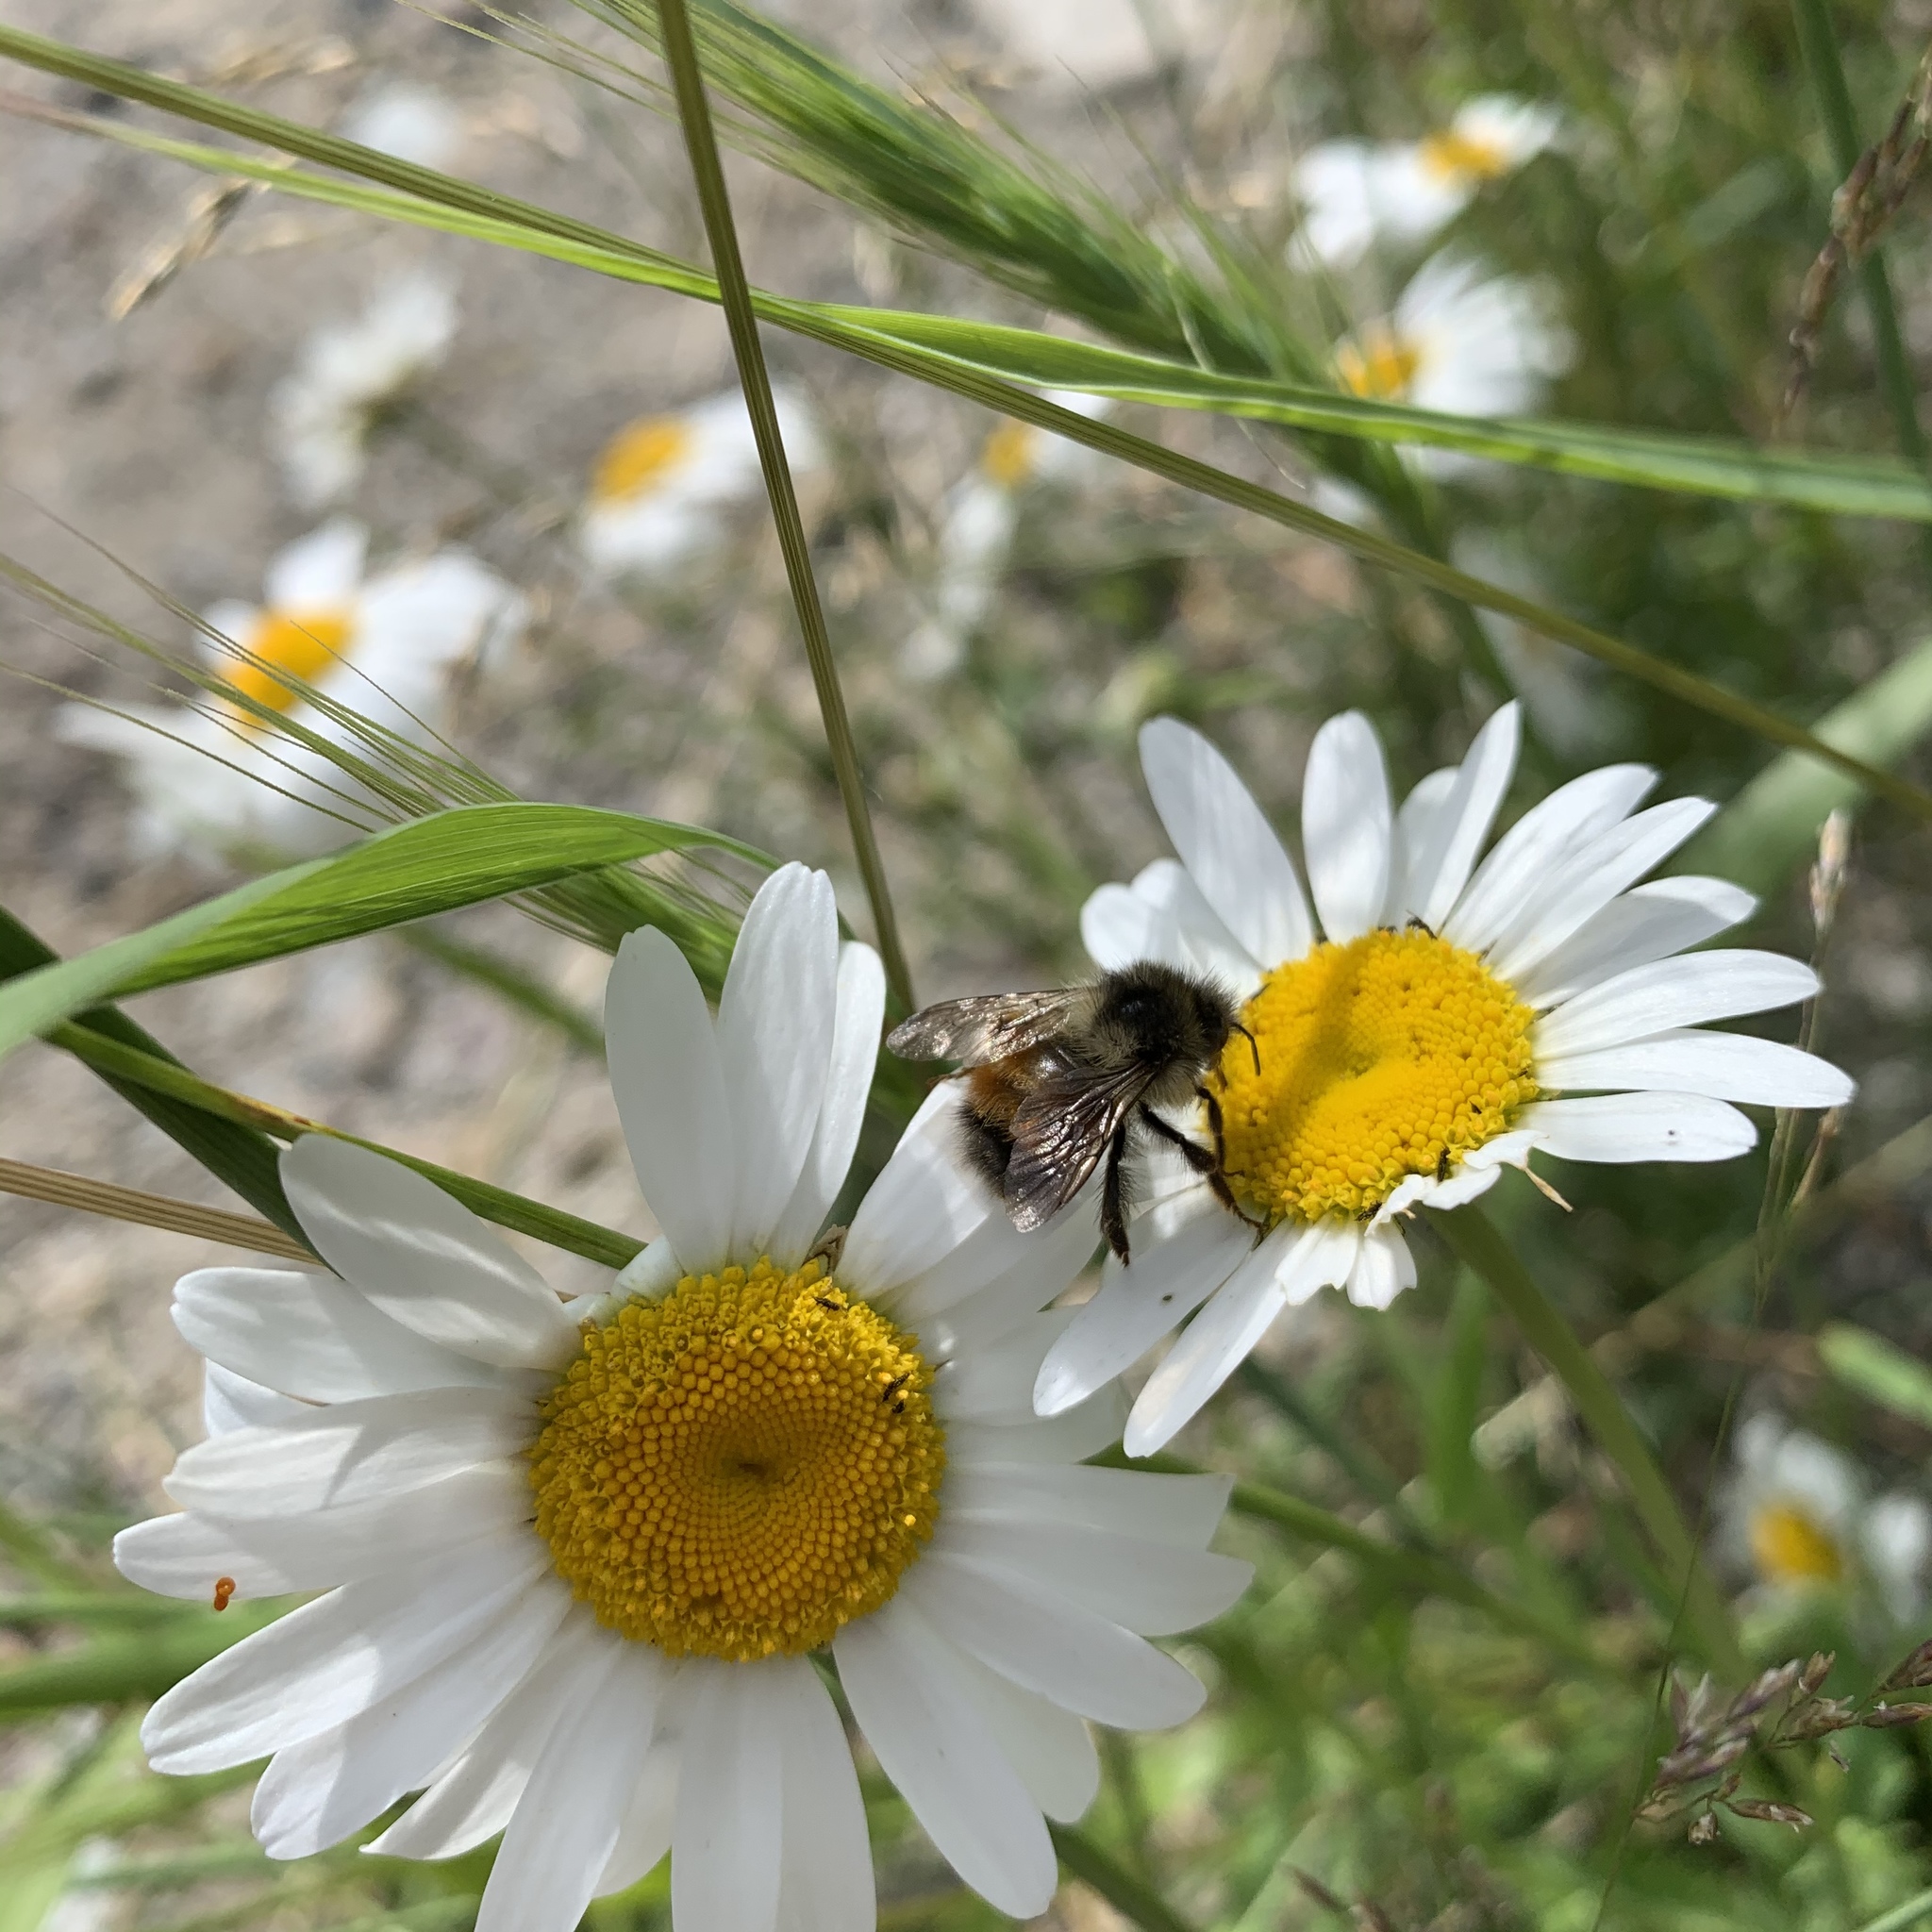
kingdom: Animalia
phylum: Arthropoda
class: Insecta
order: Hymenoptera
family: Apidae
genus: Bombus
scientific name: Bombus melanopygus
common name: Black tail bumble bee
